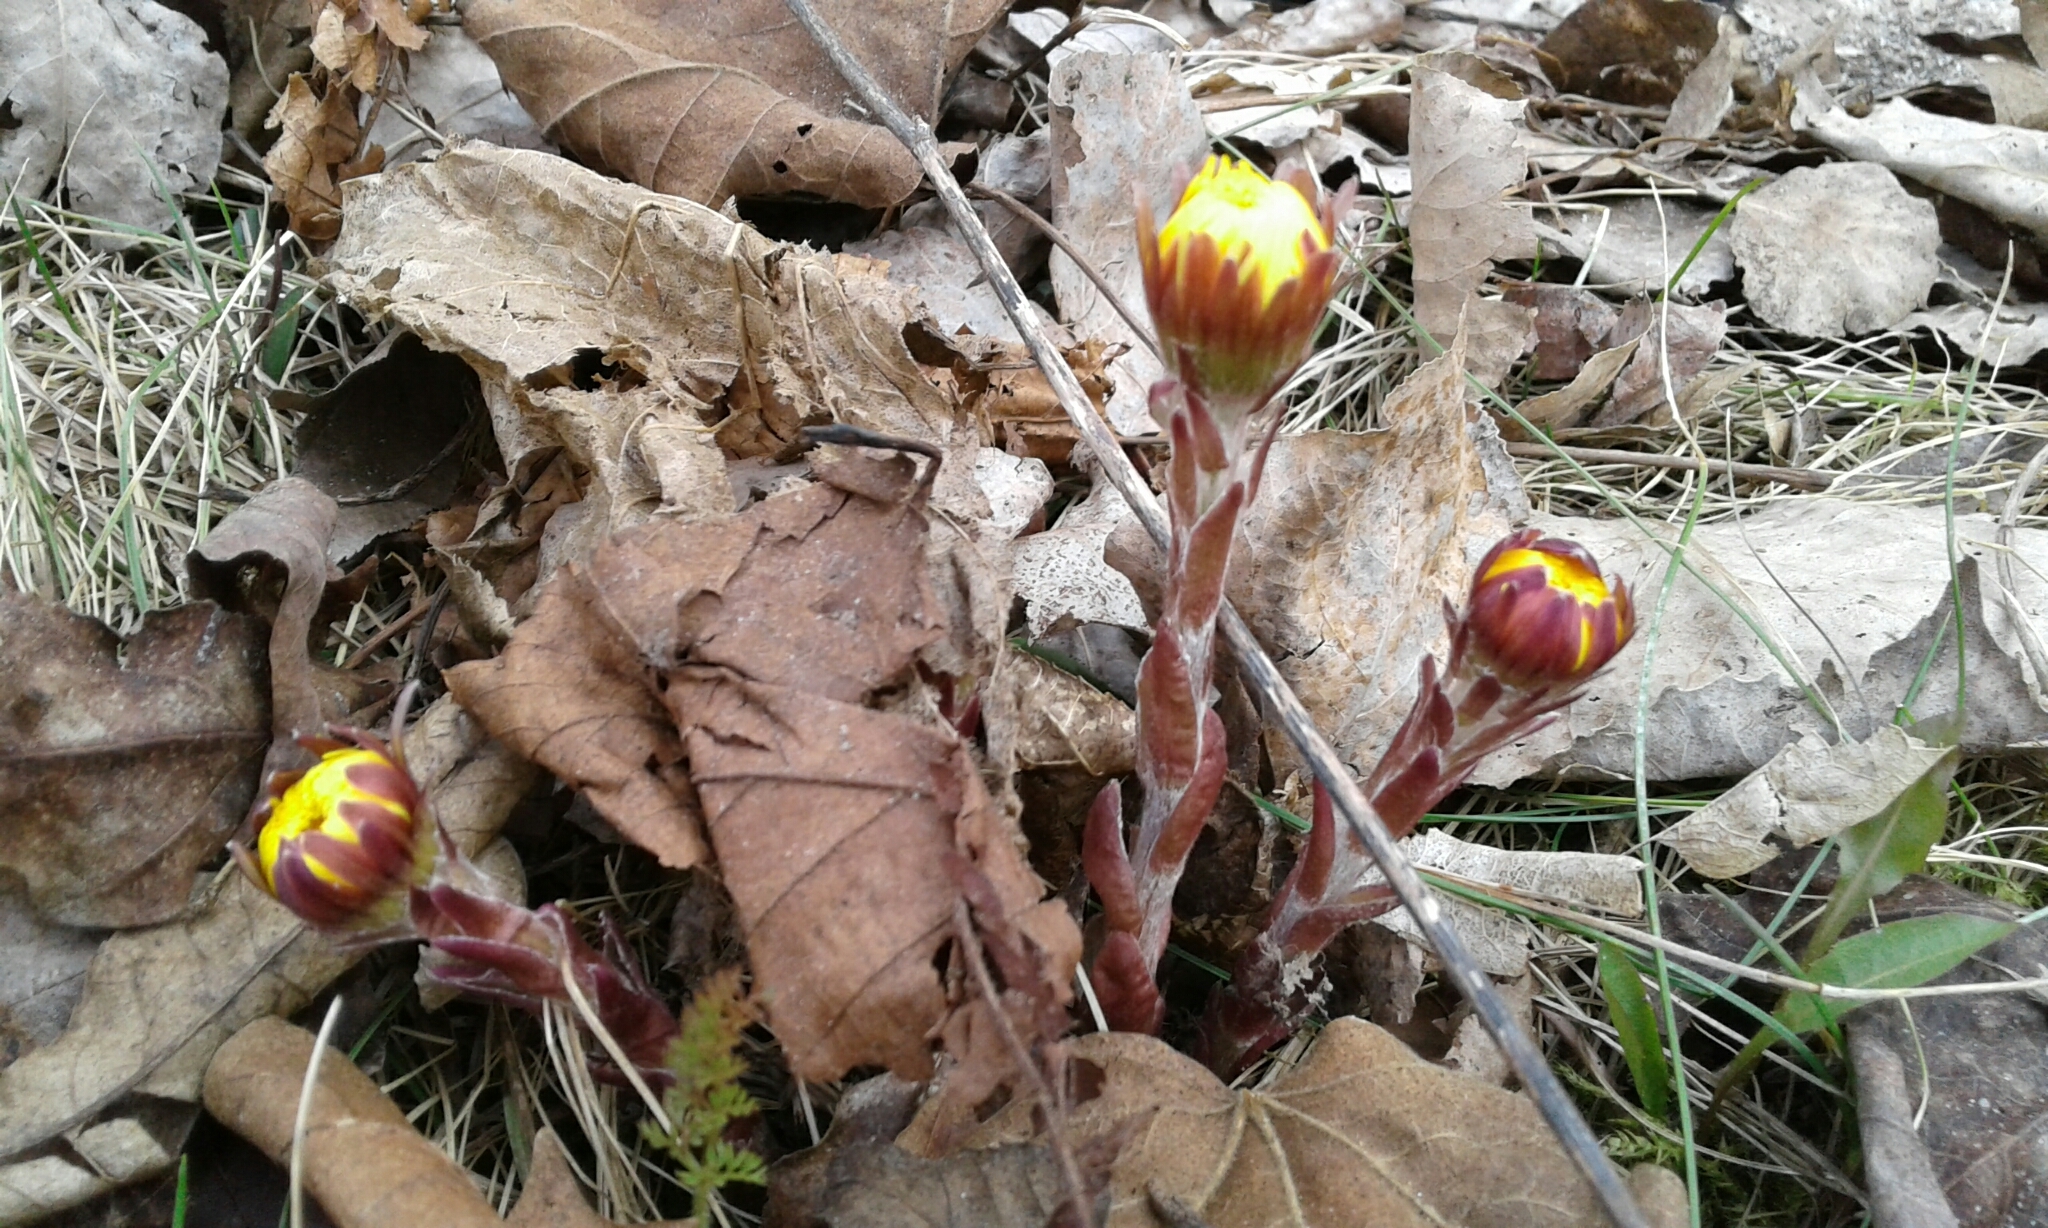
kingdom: Plantae
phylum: Tracheophyta
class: Magnoliopsida
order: Asterales
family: Asteraceae
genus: Tussilago
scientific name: Tussilago farfara
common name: Coltsfoot
